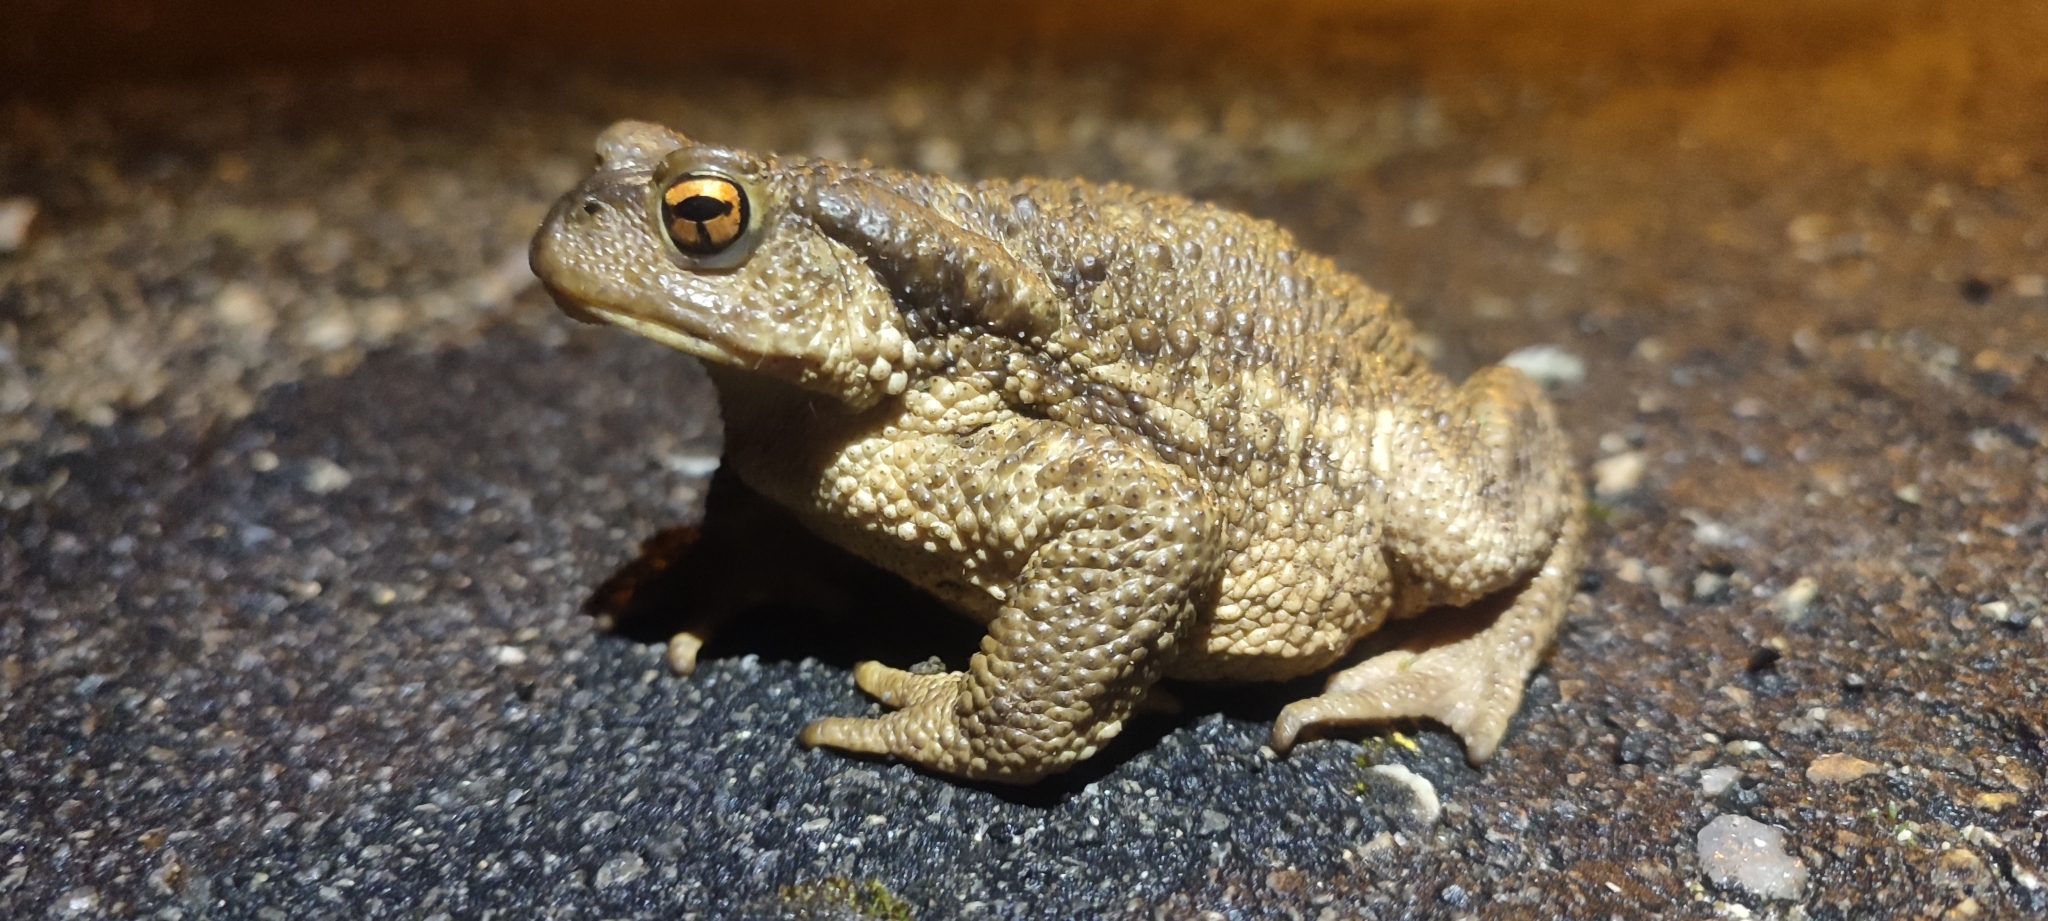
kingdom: Animalia
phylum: Chordata
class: Amphibia
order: Anura
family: Bufonidae
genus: Bufo
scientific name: Bufo spinosus
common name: Western common toad
